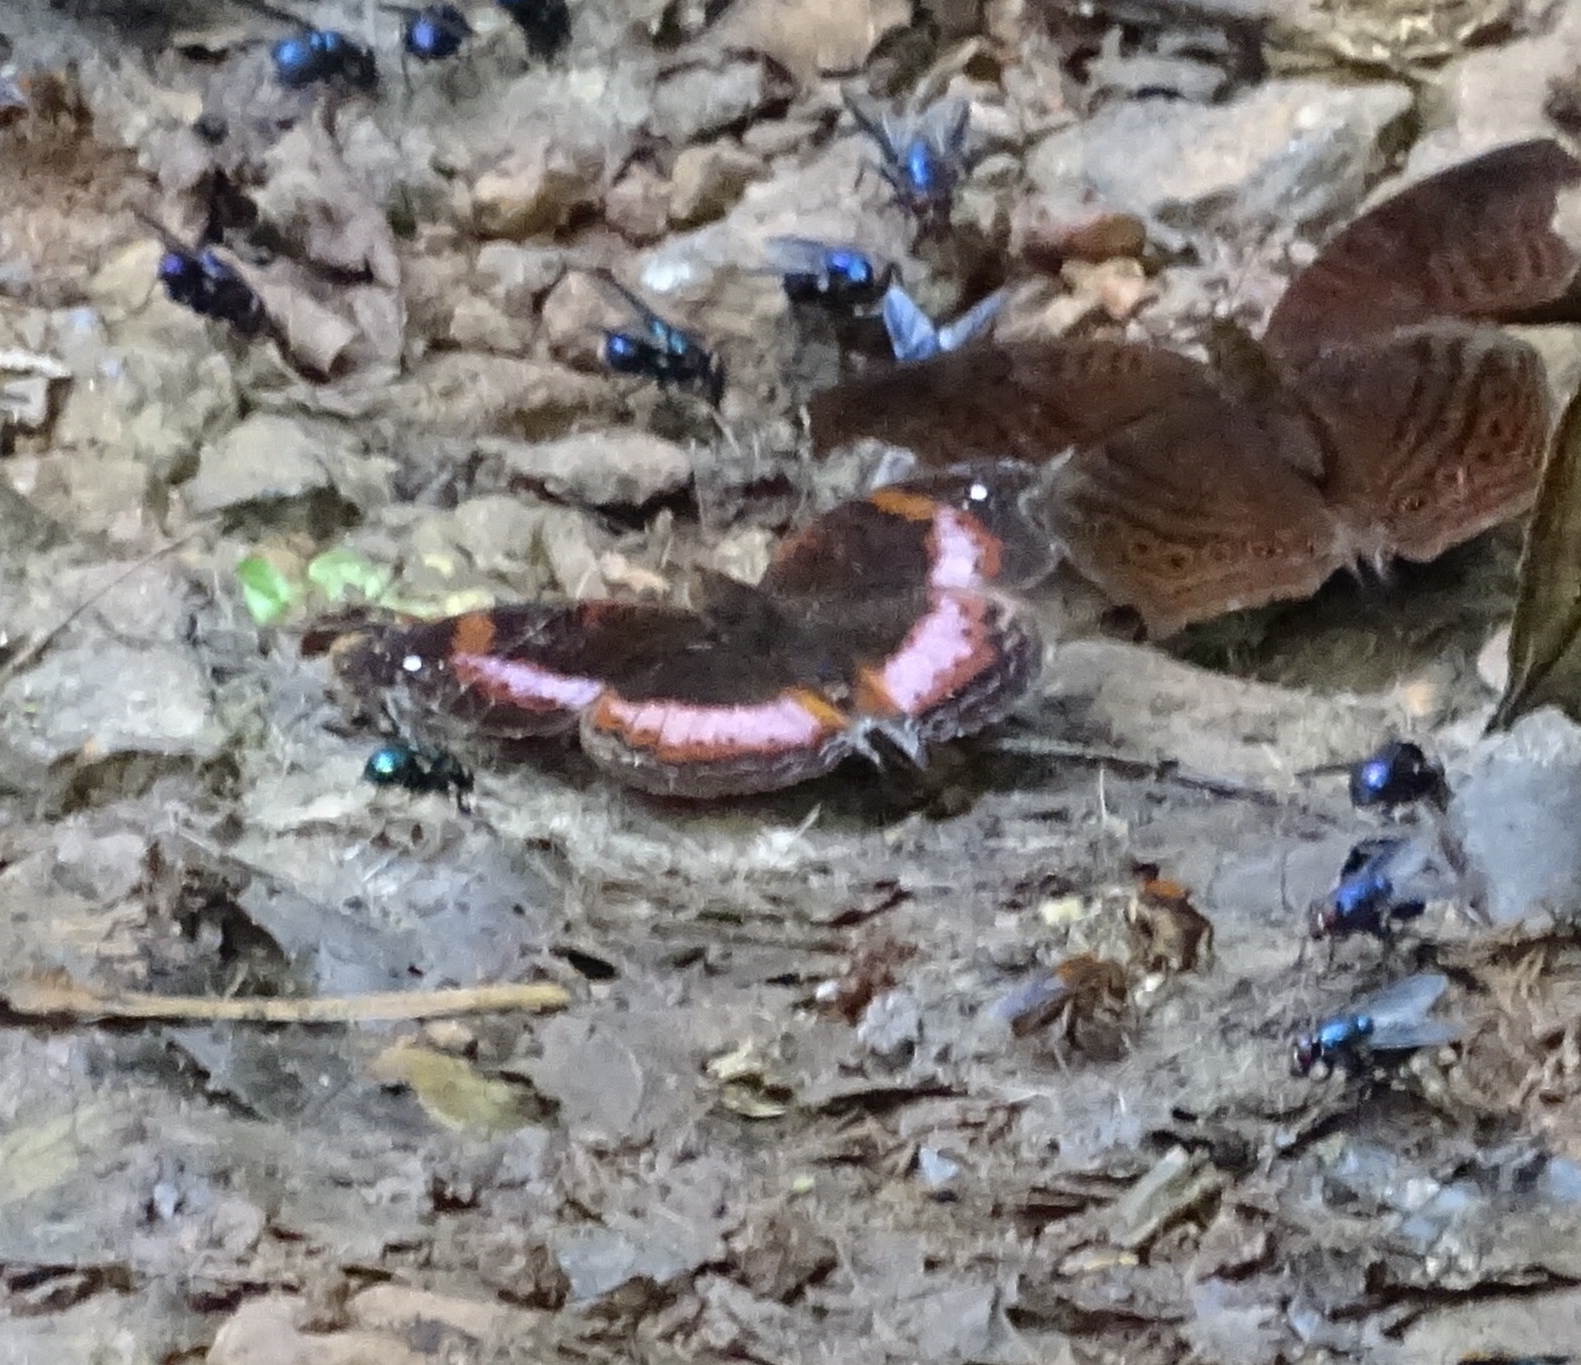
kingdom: Animalia
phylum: Arthropoda
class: Insecta
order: Lepidoptera
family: Nymphalidae
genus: Junonia
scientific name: Junonia sinuata
